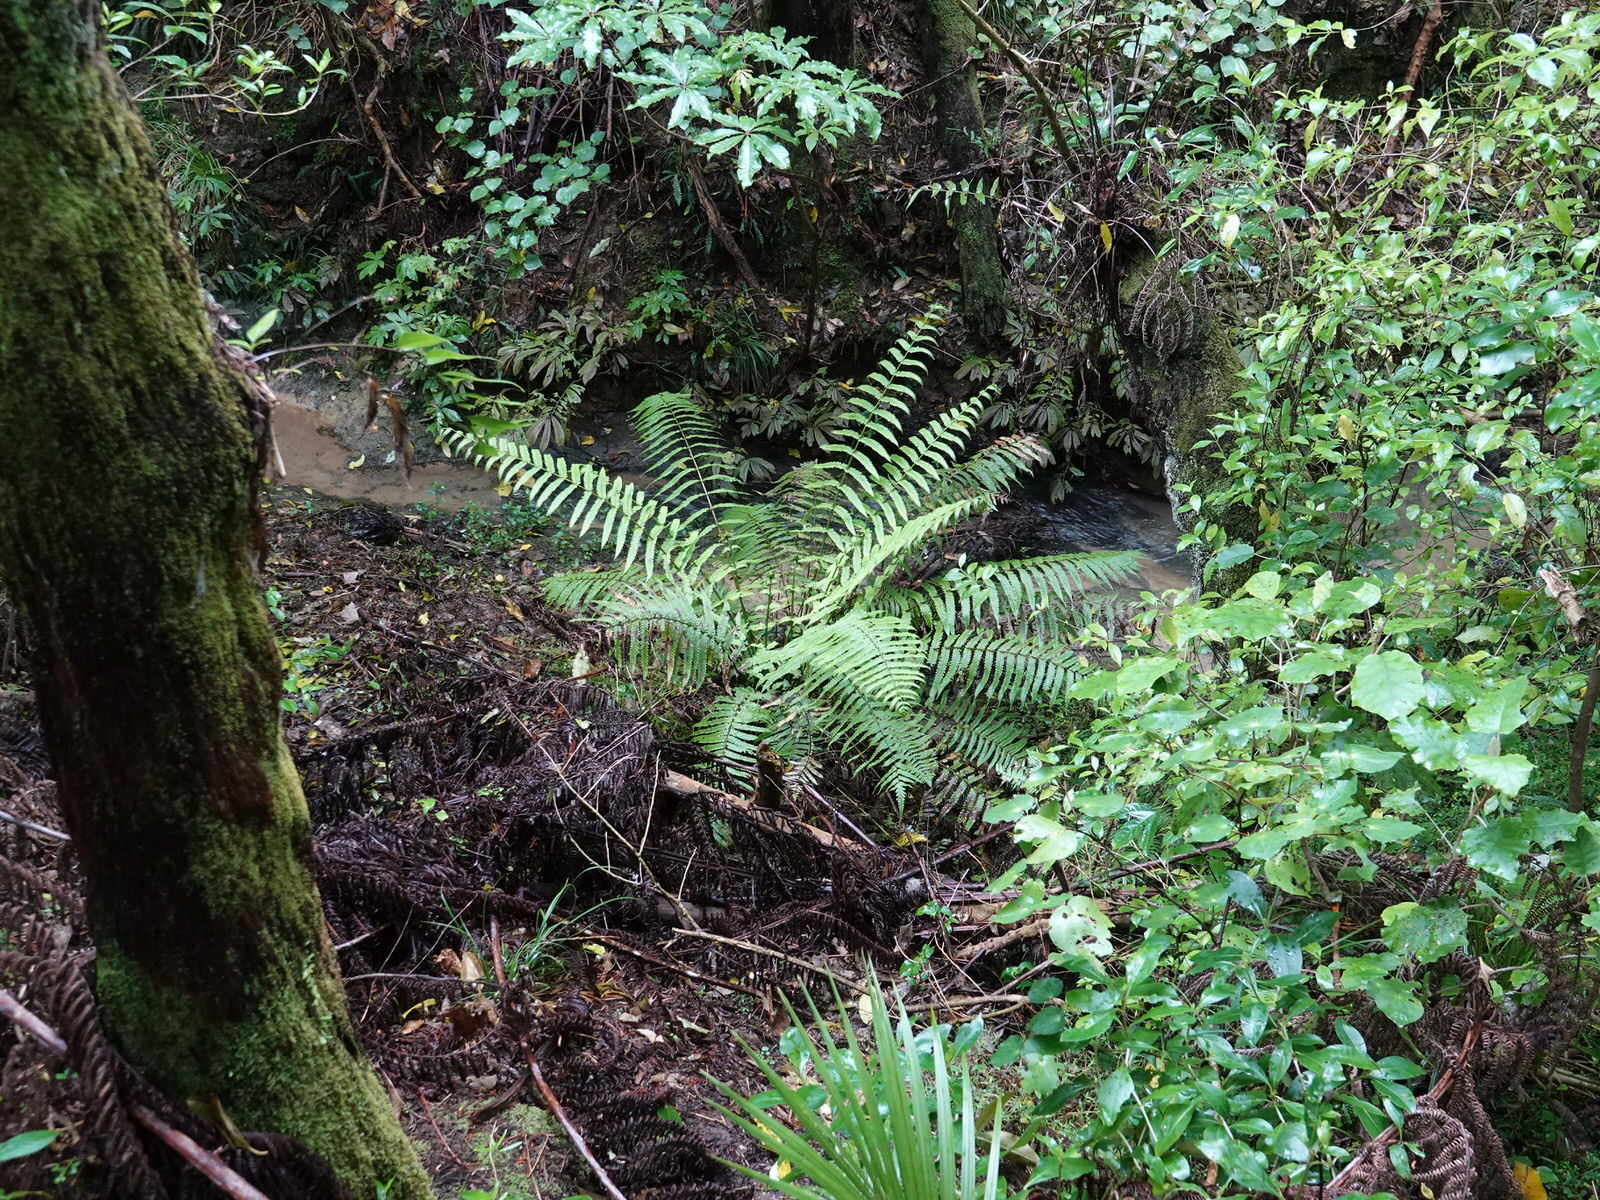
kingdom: Plantae
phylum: Tracheophyta
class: Polypodiopsida
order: Polypodiales
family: Thelypteridaceae
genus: Pakau
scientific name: Pakau pennigera
